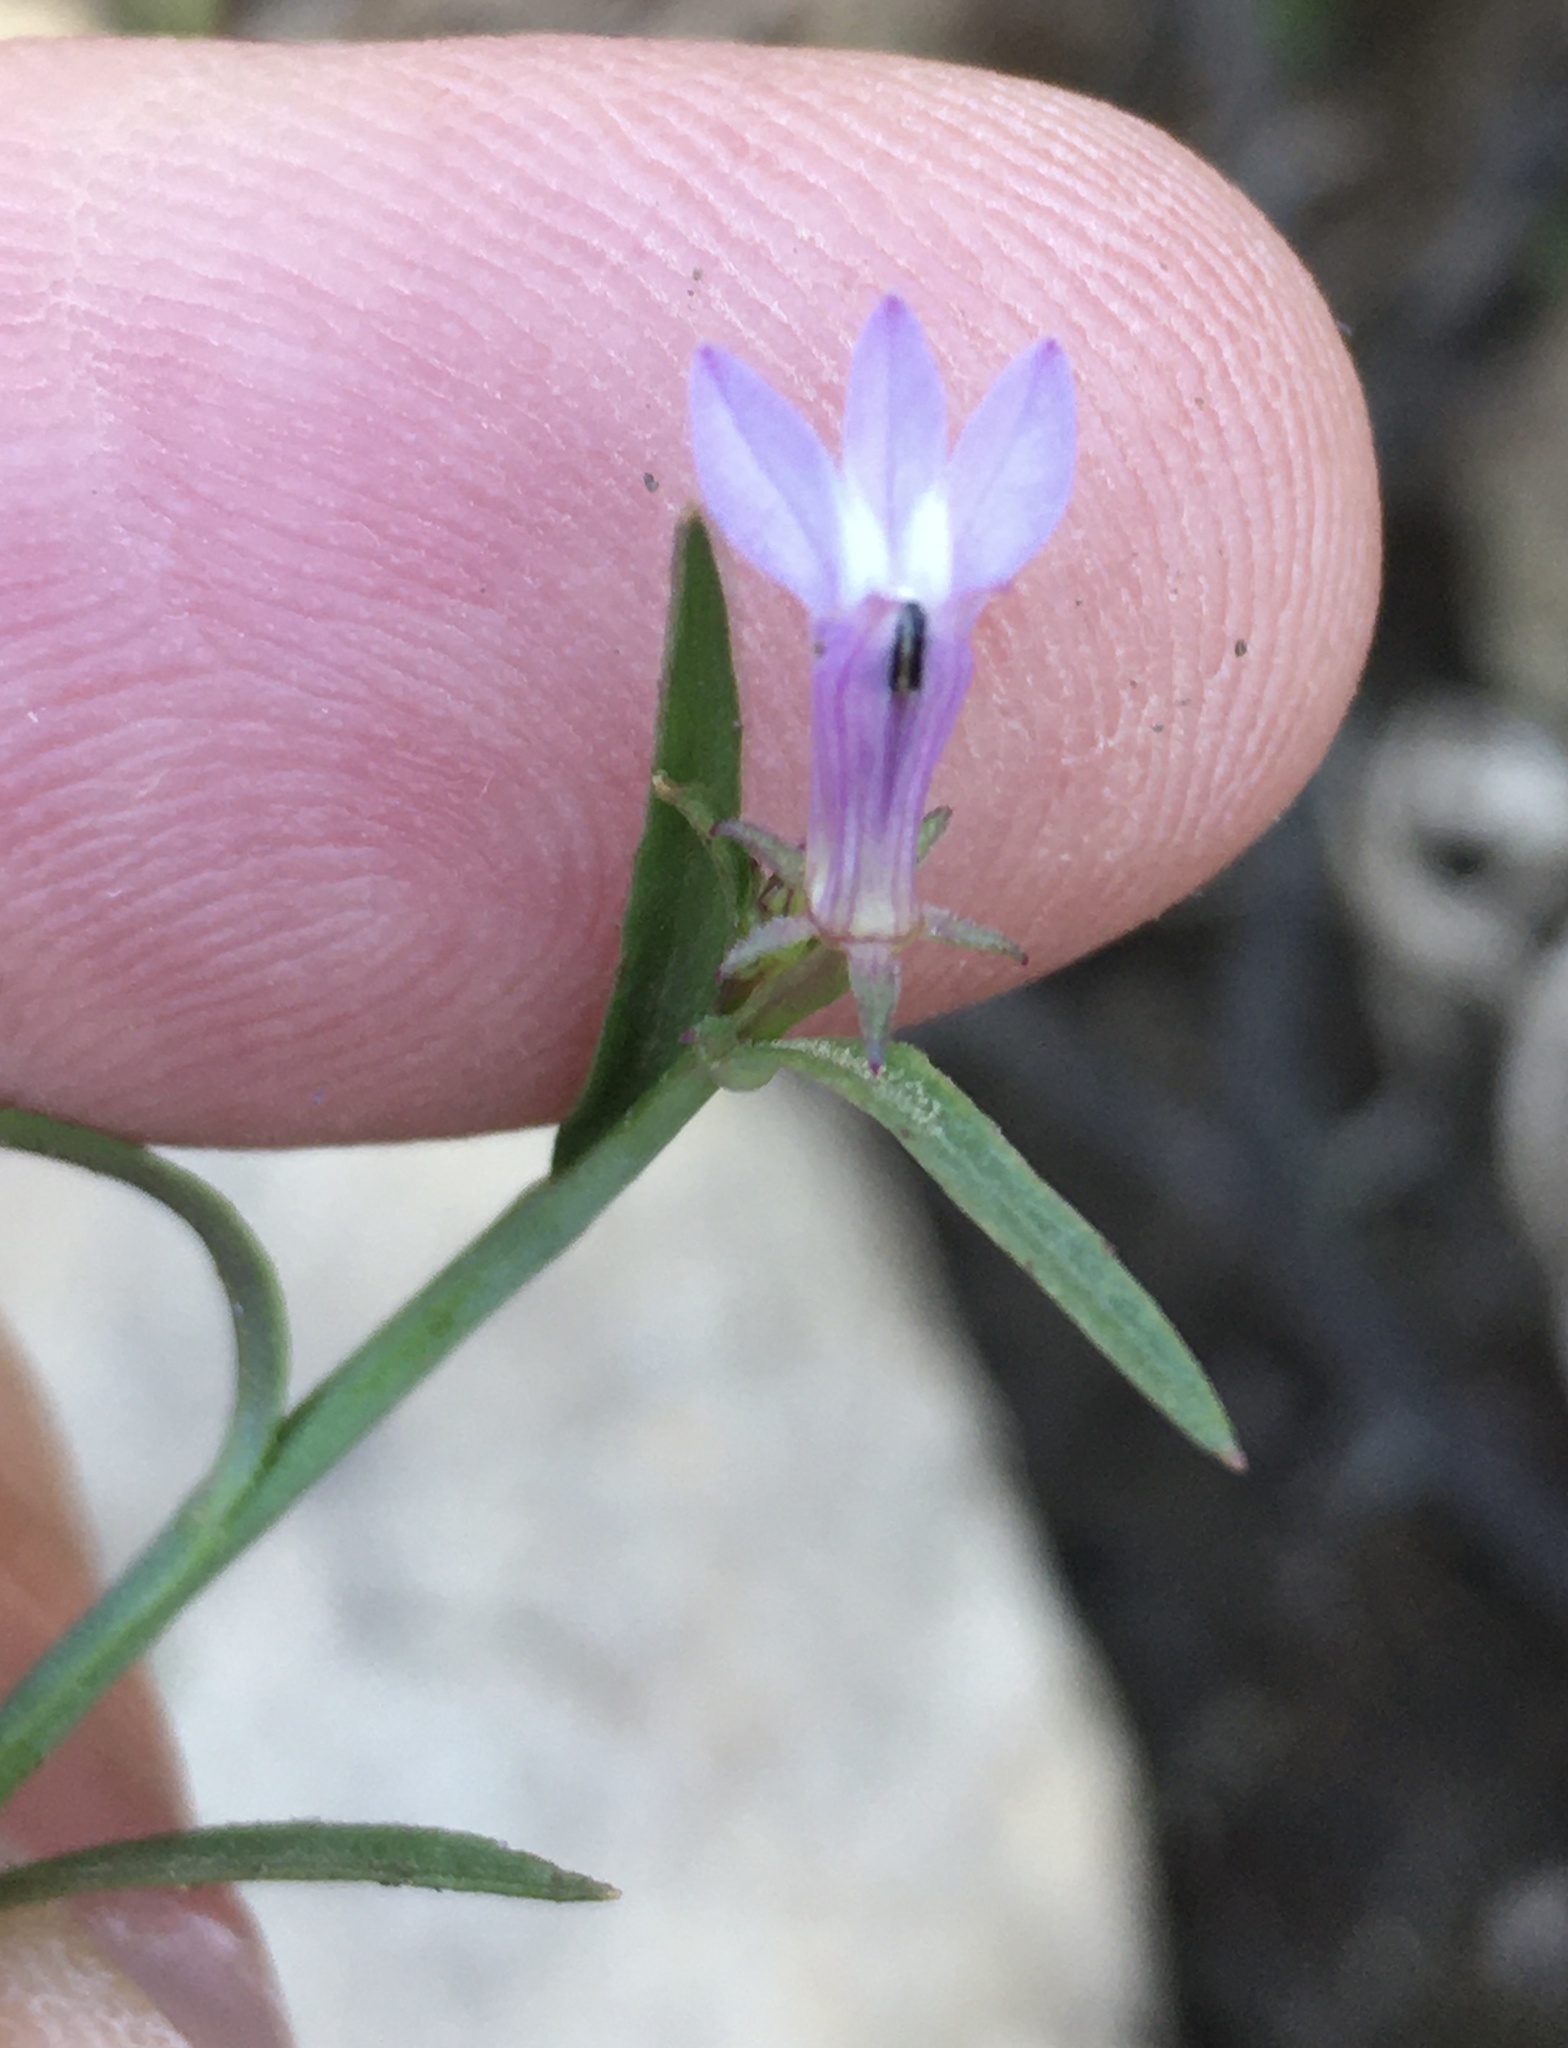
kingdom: Plantae
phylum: Tracheophyta
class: Magnoliopsida
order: Asterales
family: Campanulaceae
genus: Grammatotheca
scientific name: Grammatotheca bergiana
